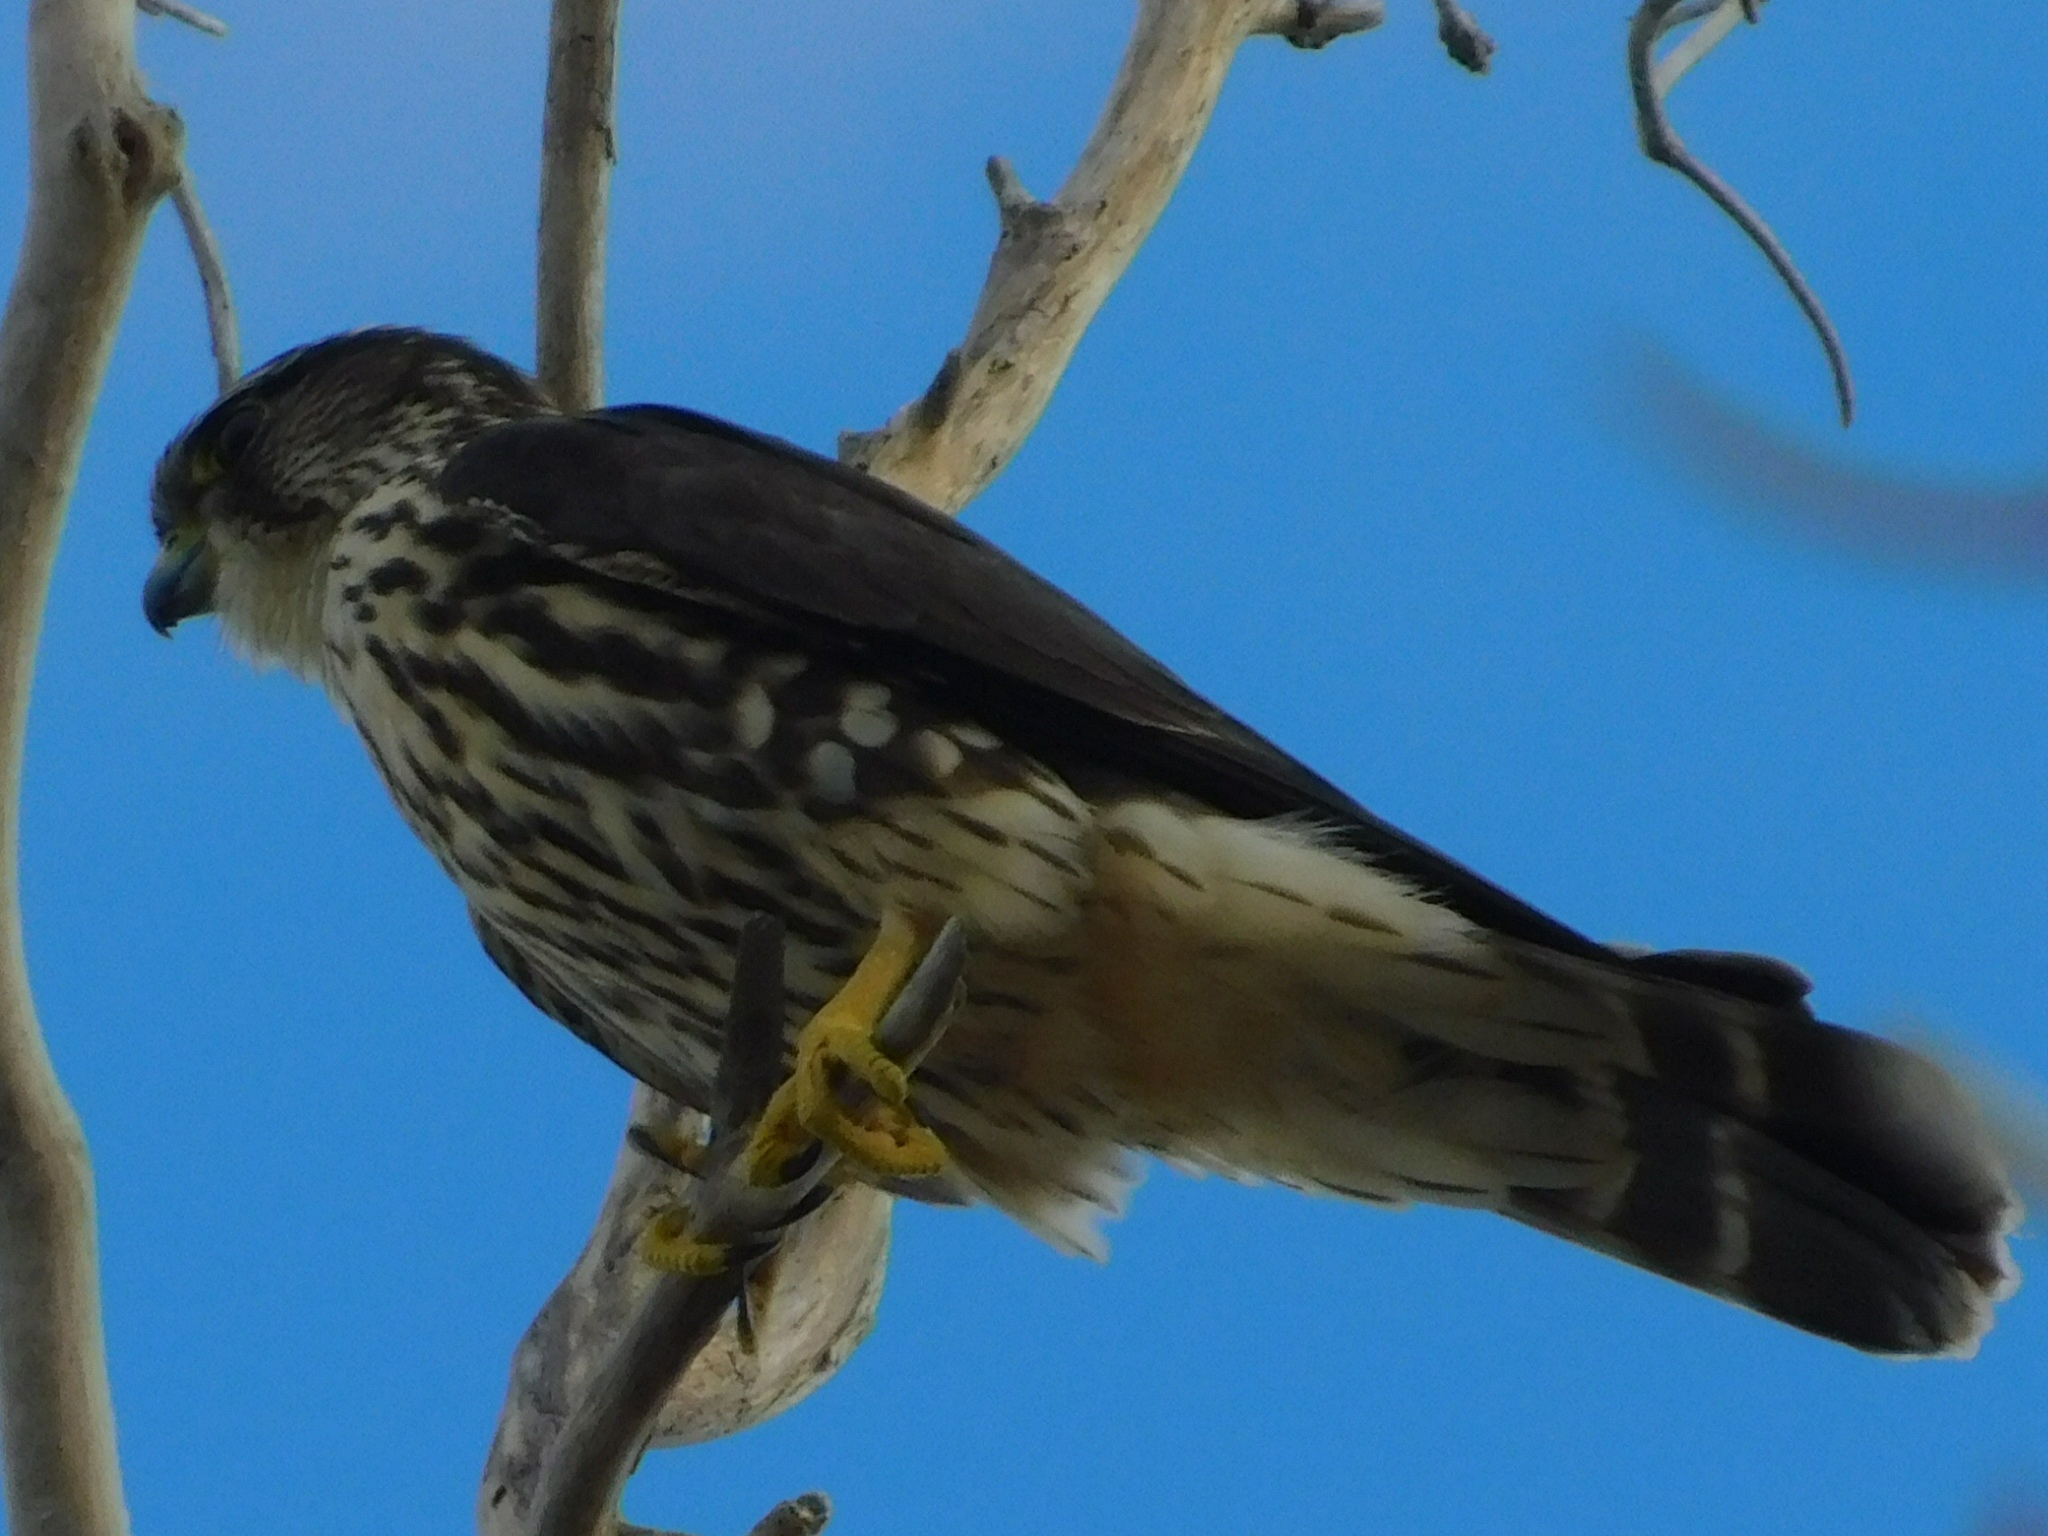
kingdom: Animalia
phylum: Chordata
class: Aves
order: Falconiformes
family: Falconidae
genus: Falco
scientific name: Falco columbarius
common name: Merlin
